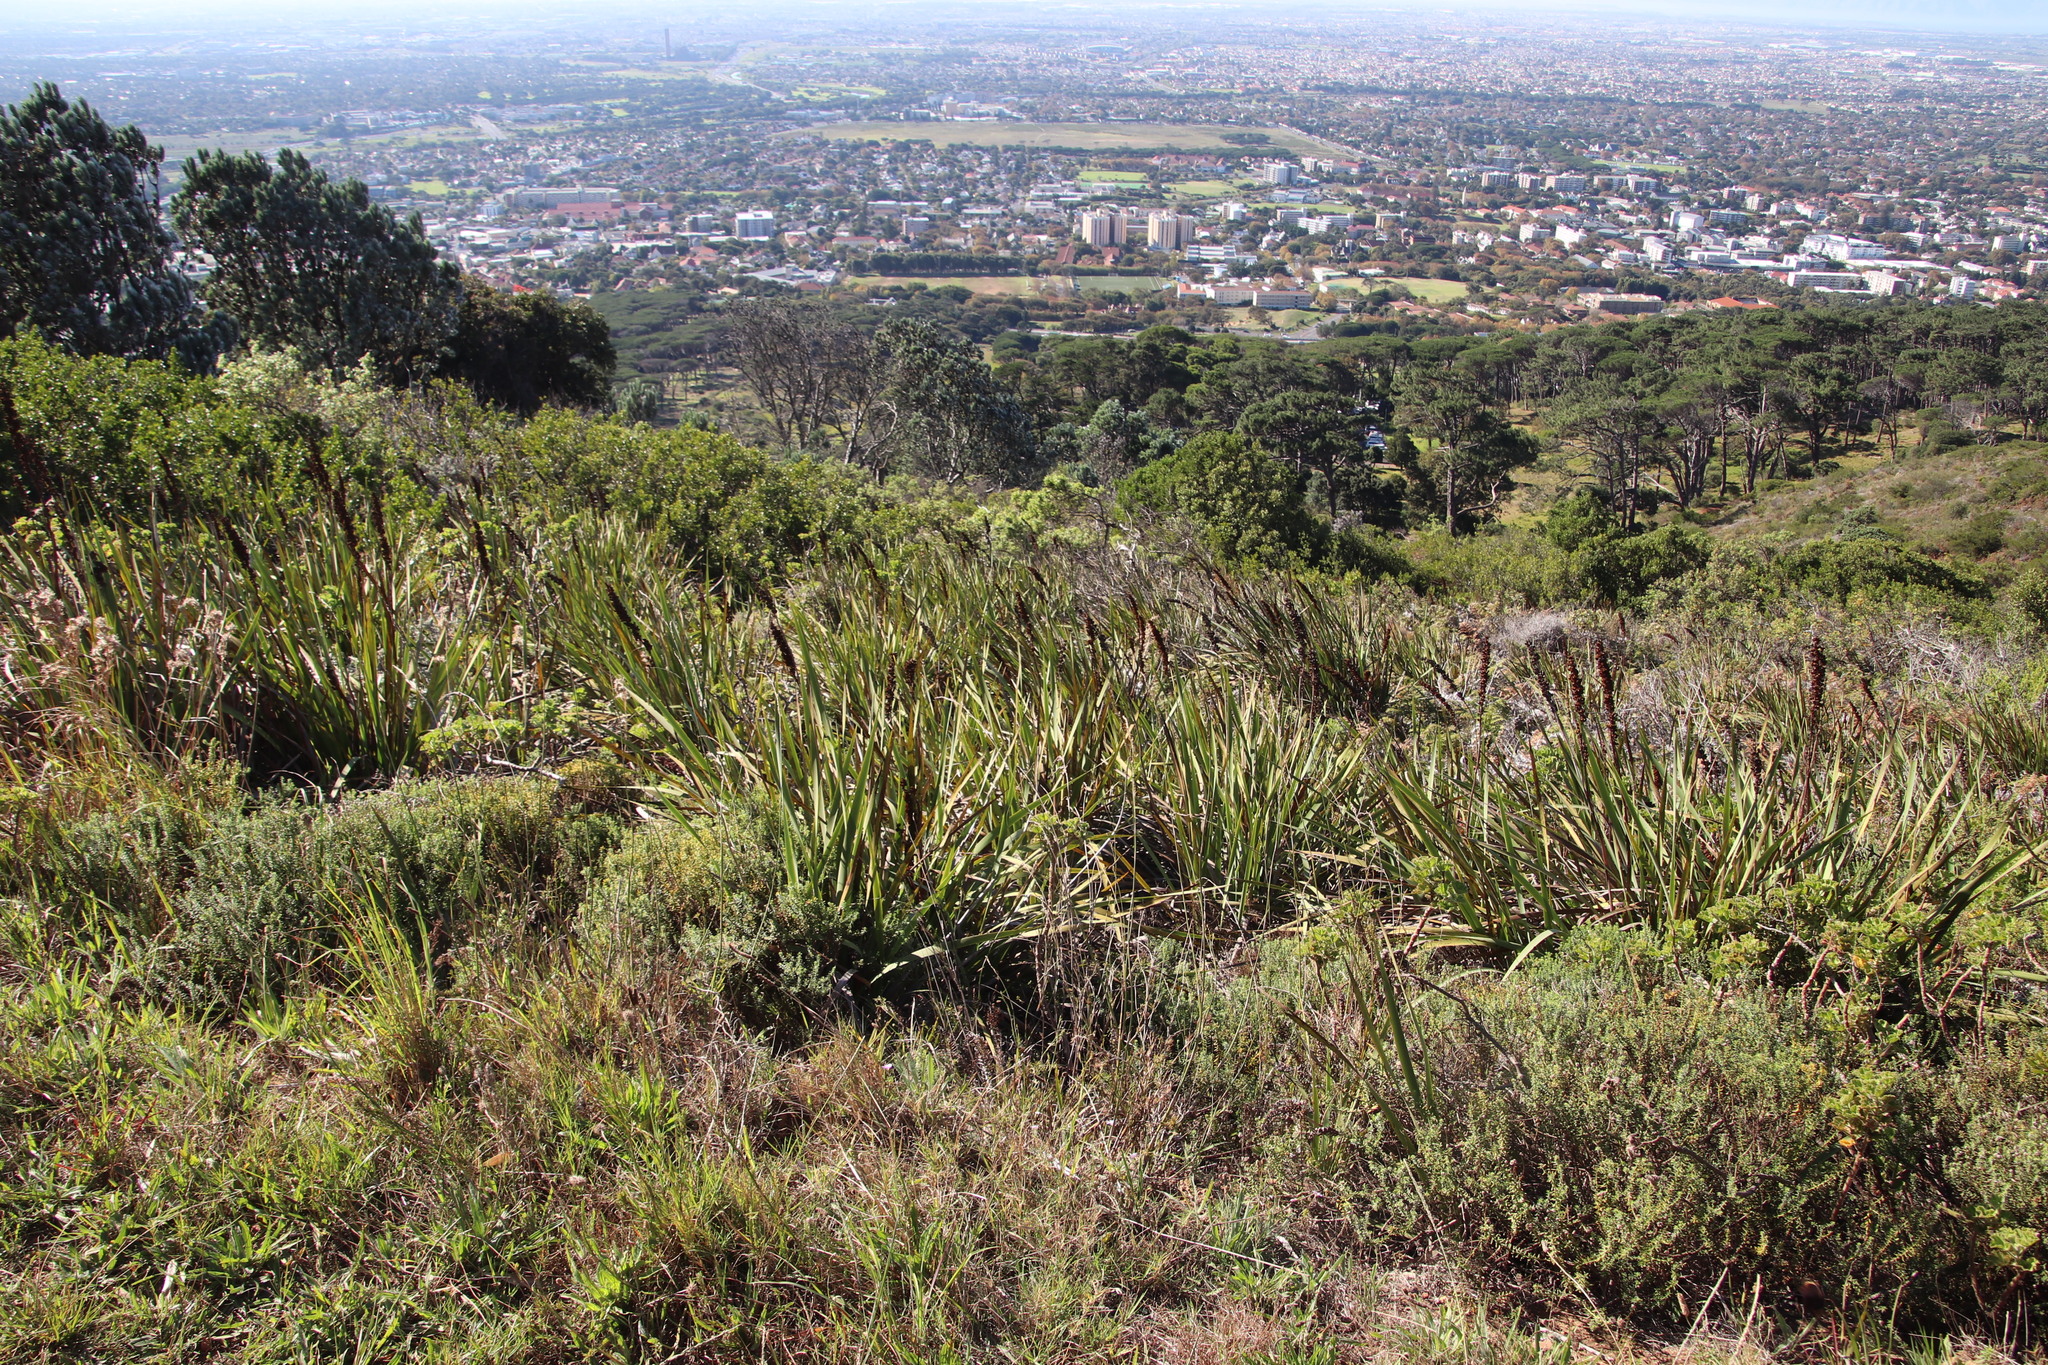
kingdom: Plantae
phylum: Tracheophyta
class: Liliopsida
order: Asparagales
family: Iridaceae
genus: Aristea
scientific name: Aristea bakeri
